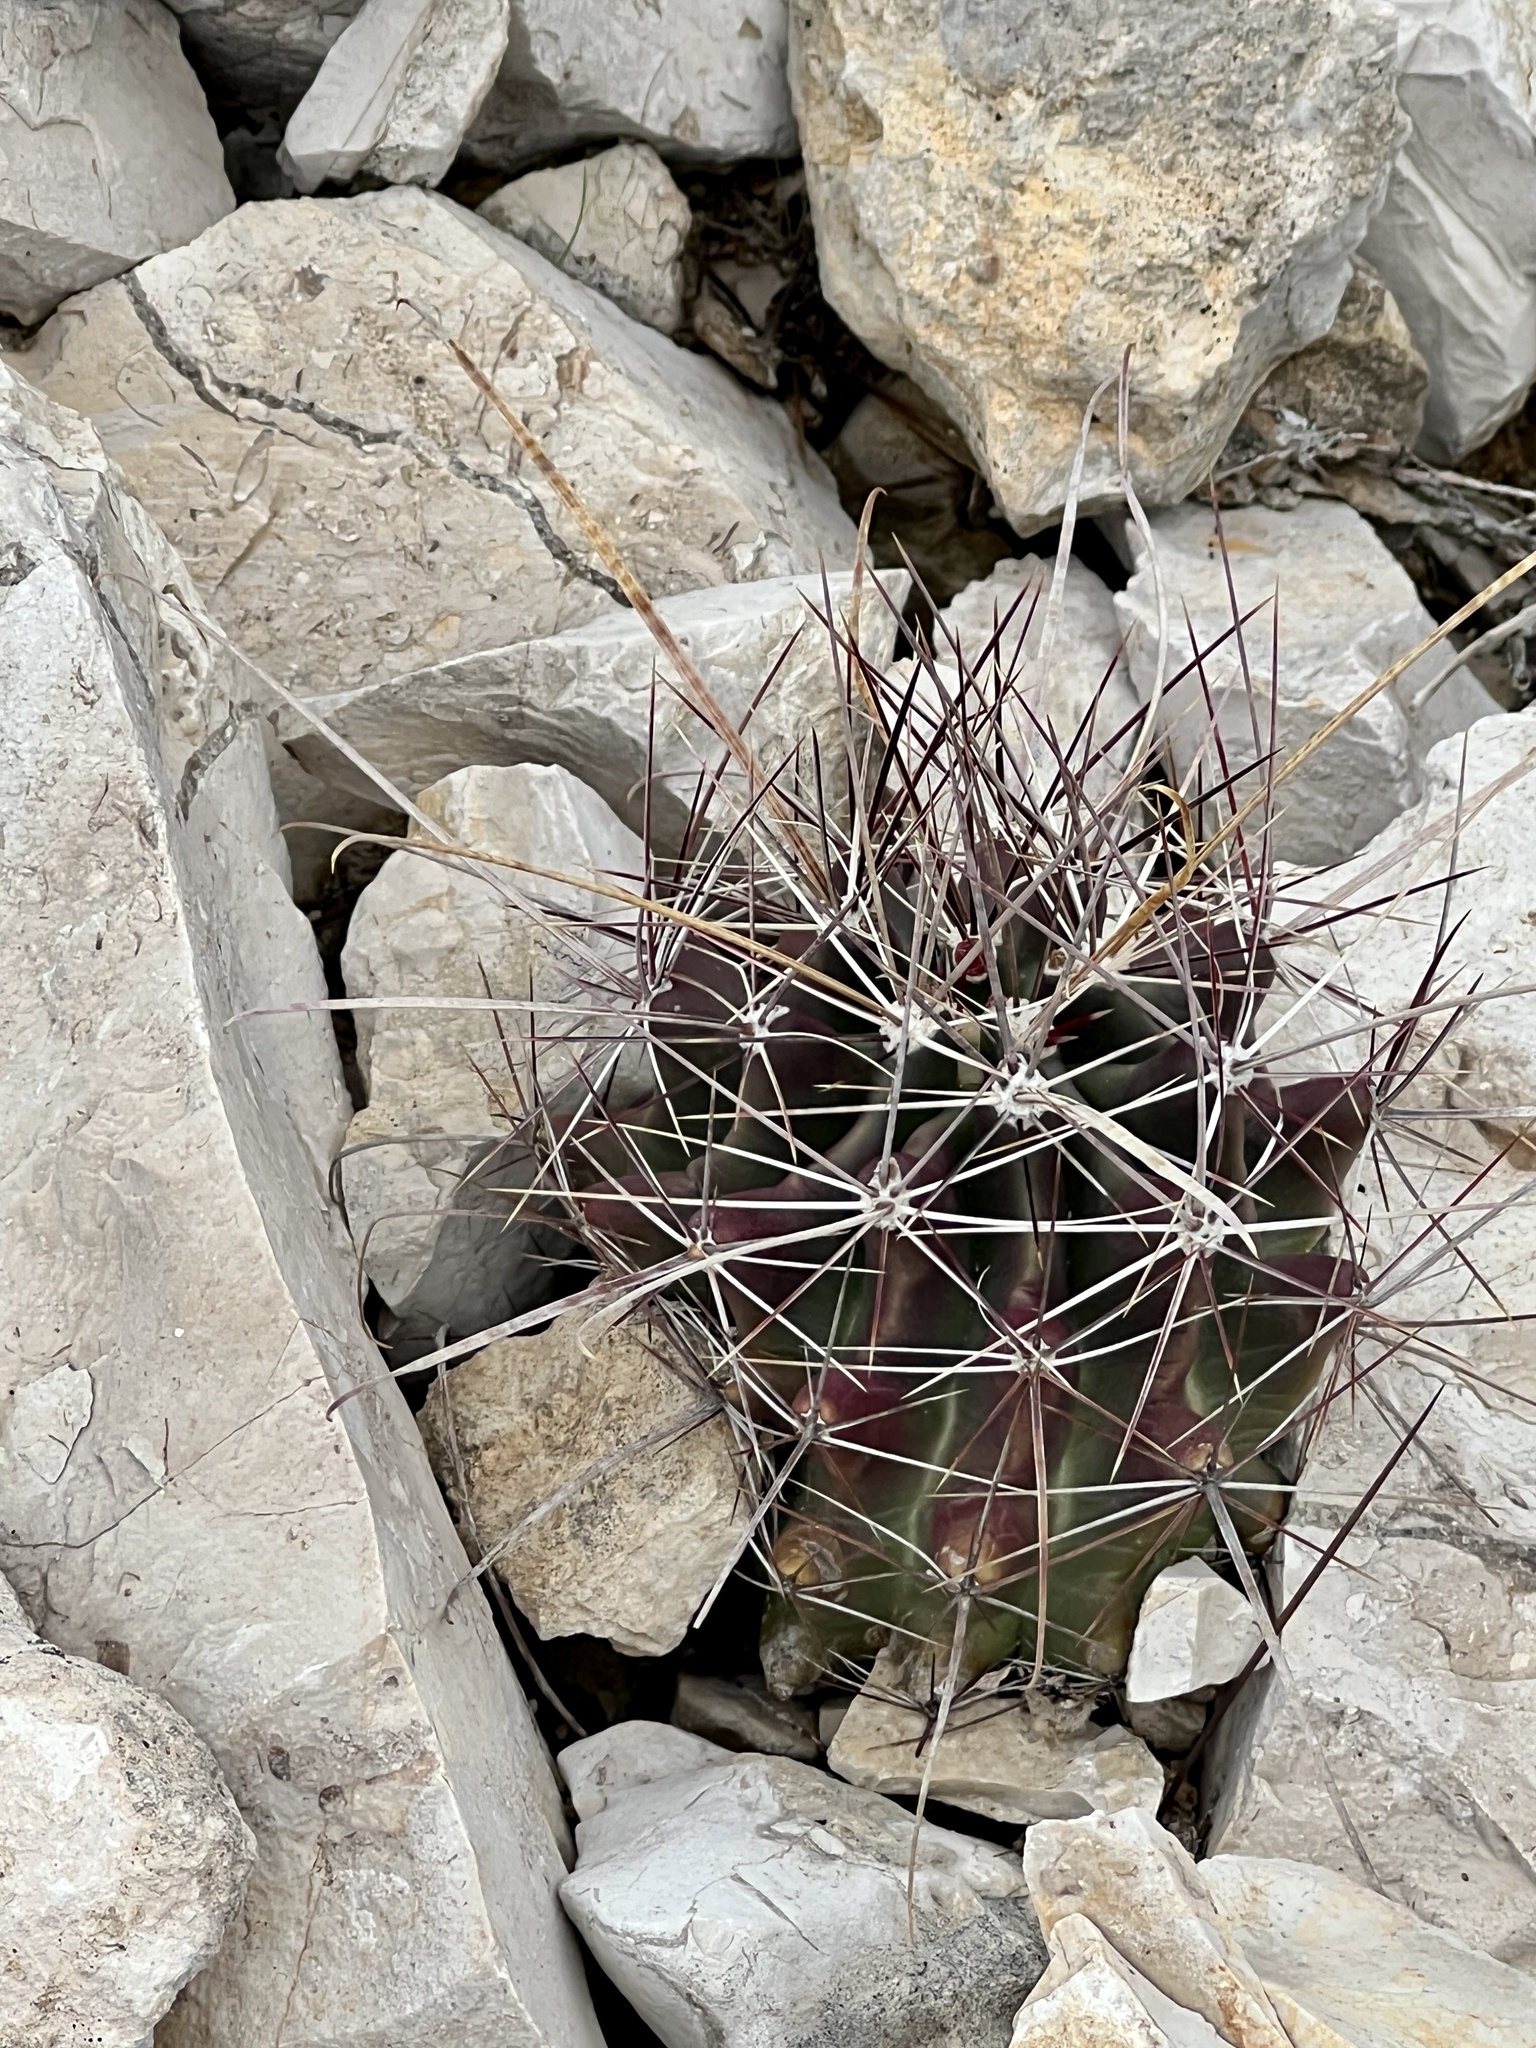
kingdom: Plantae
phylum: Tracheophyta
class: Magnoliopsida
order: Caryophyllales
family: Cactaceae
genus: Bisnaga
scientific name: Bisnaga hamatacantha
